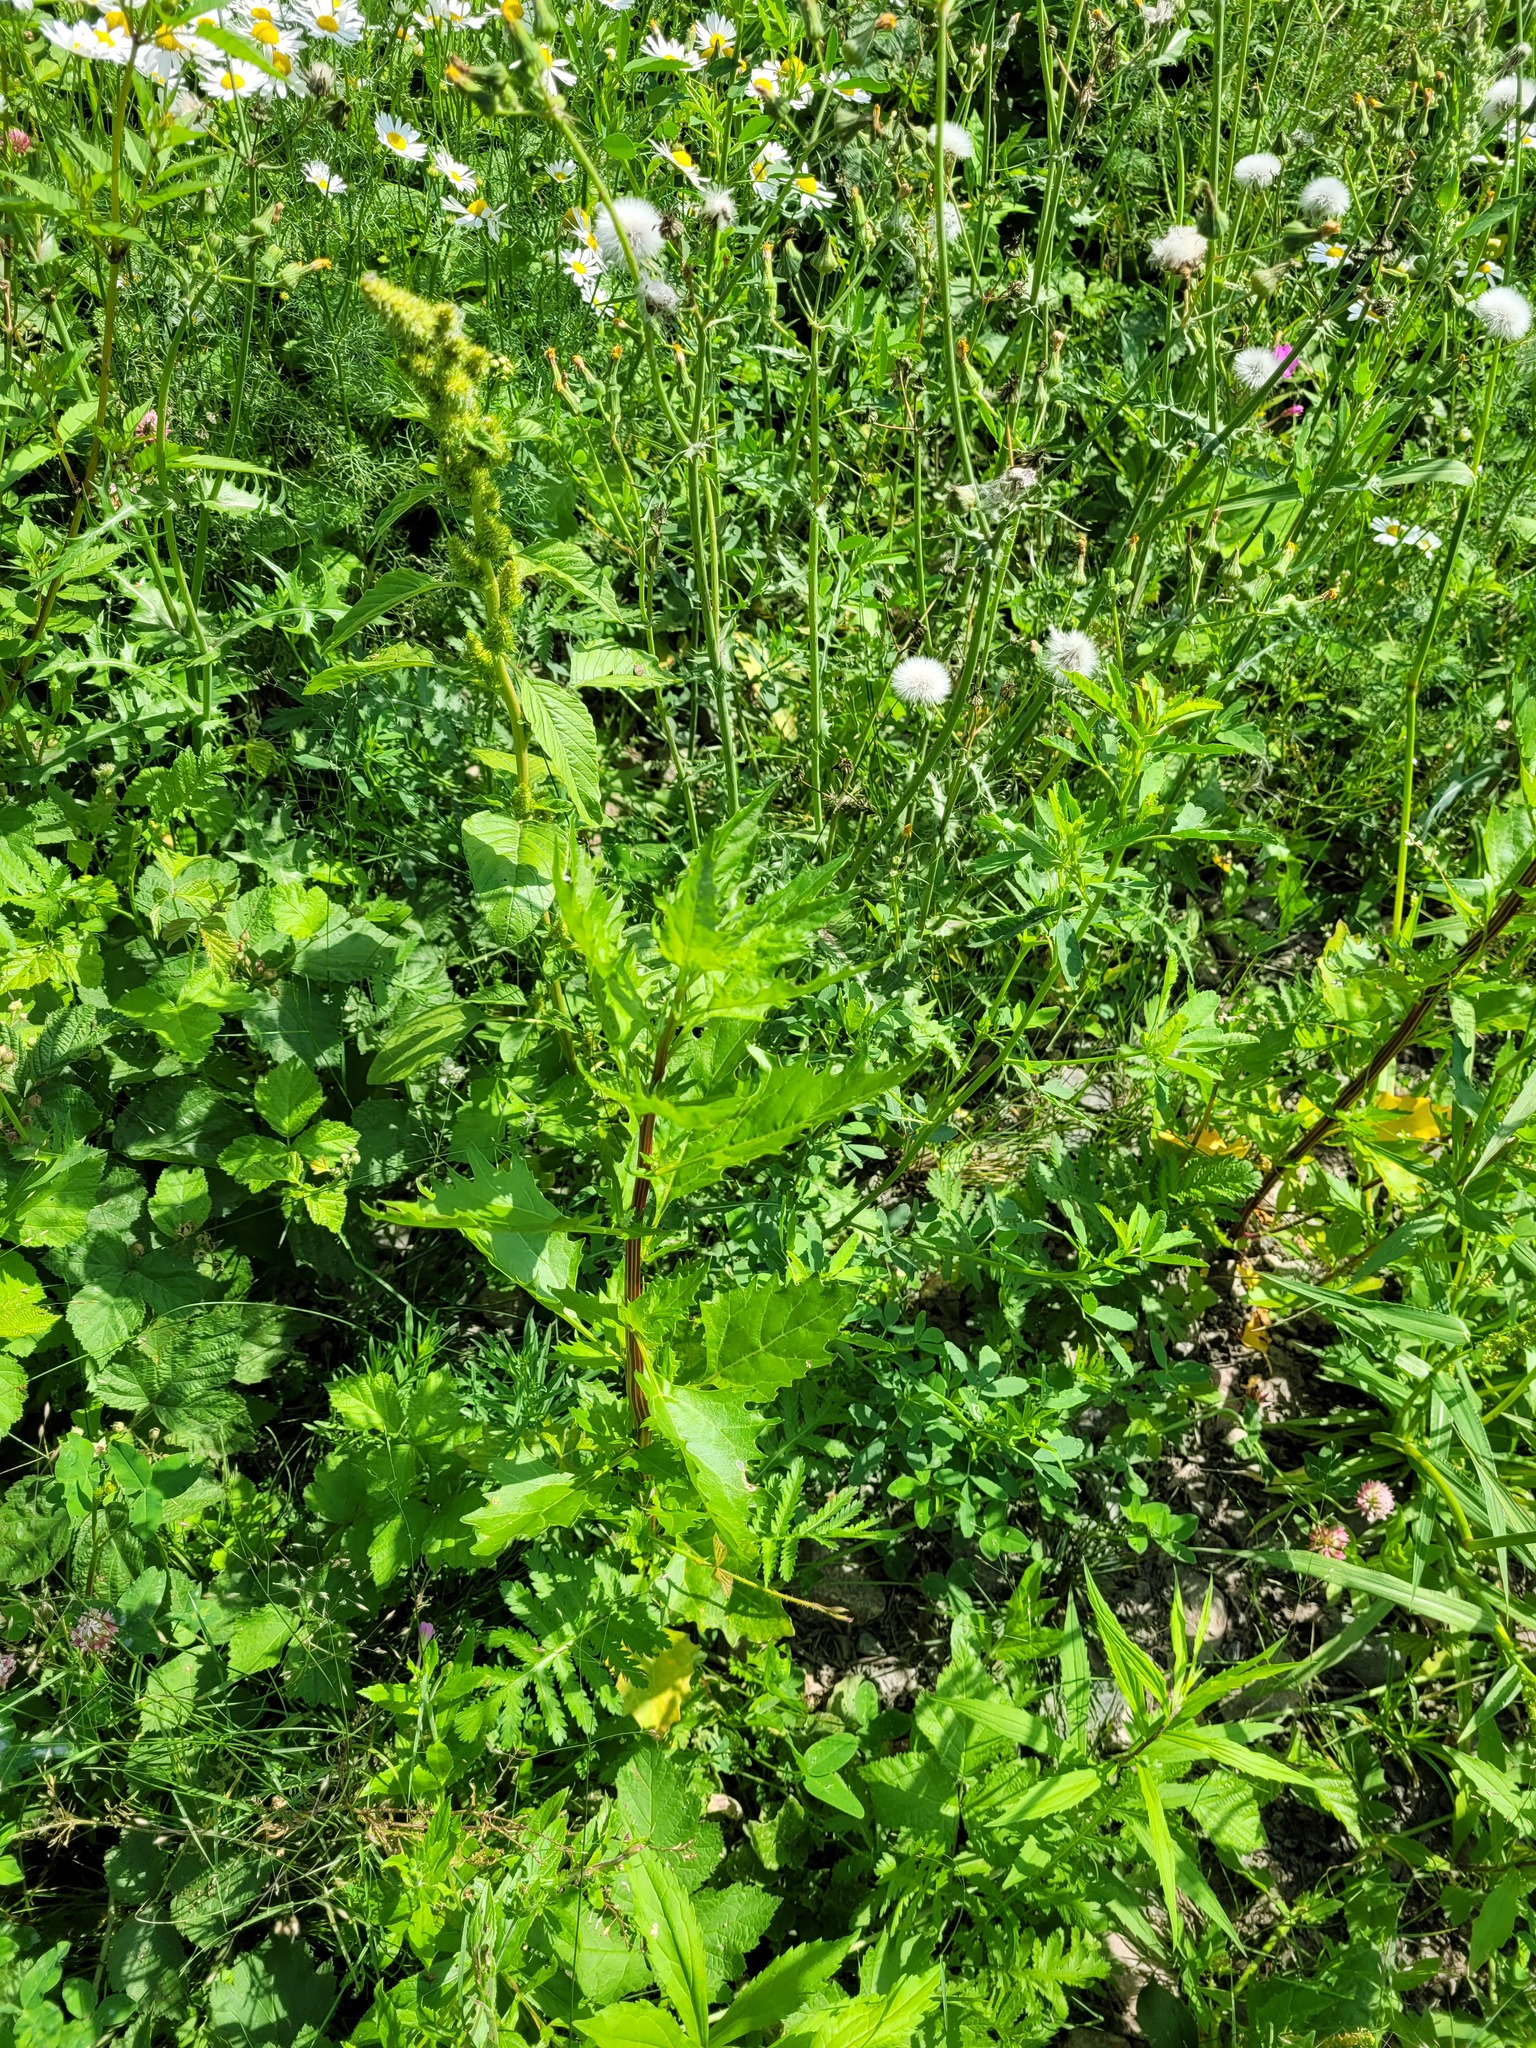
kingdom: Plantae
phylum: Tracheophyta
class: Magnoliopsida
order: Caryophyllales
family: Amaranthaceae
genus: Oxybasis
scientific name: Oxybasis rubra
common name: Red goosefoot
